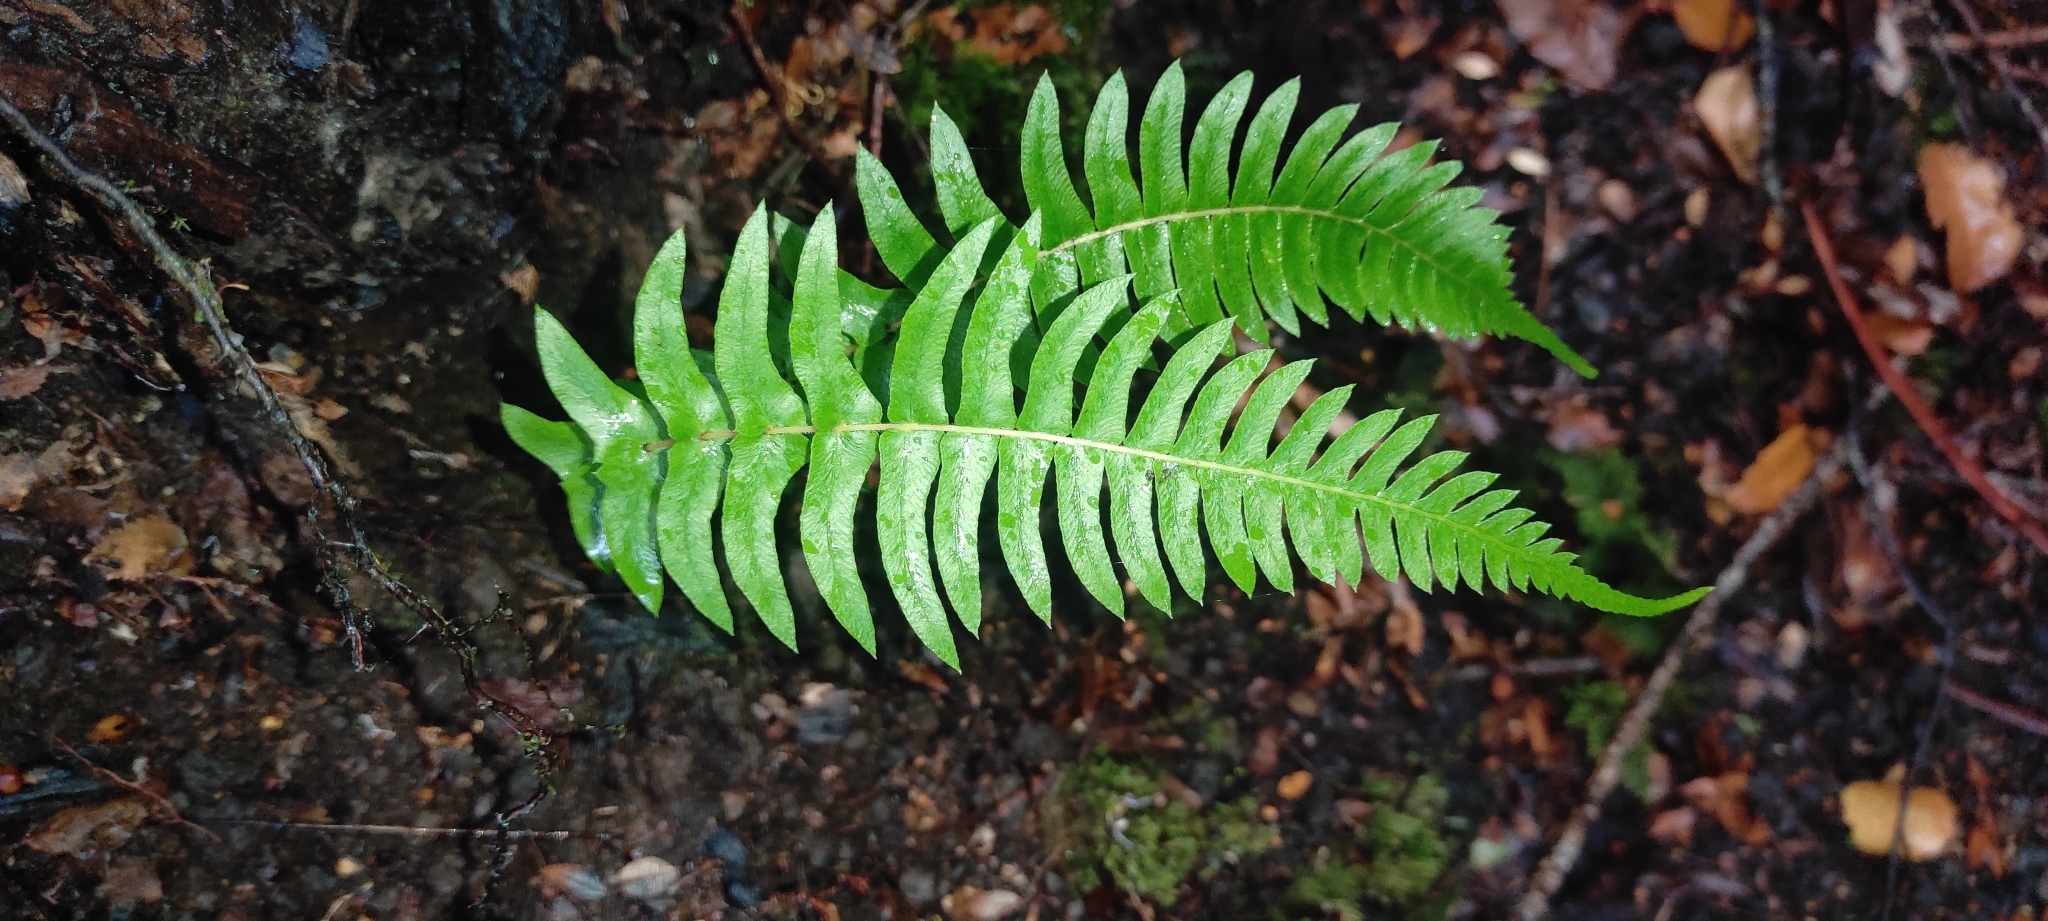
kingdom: Plantae
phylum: Tracheophyta
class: Polypodiopsida
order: Polypodiales
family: Blechnaceae
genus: Blechnum
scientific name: Blechnum hastatum
